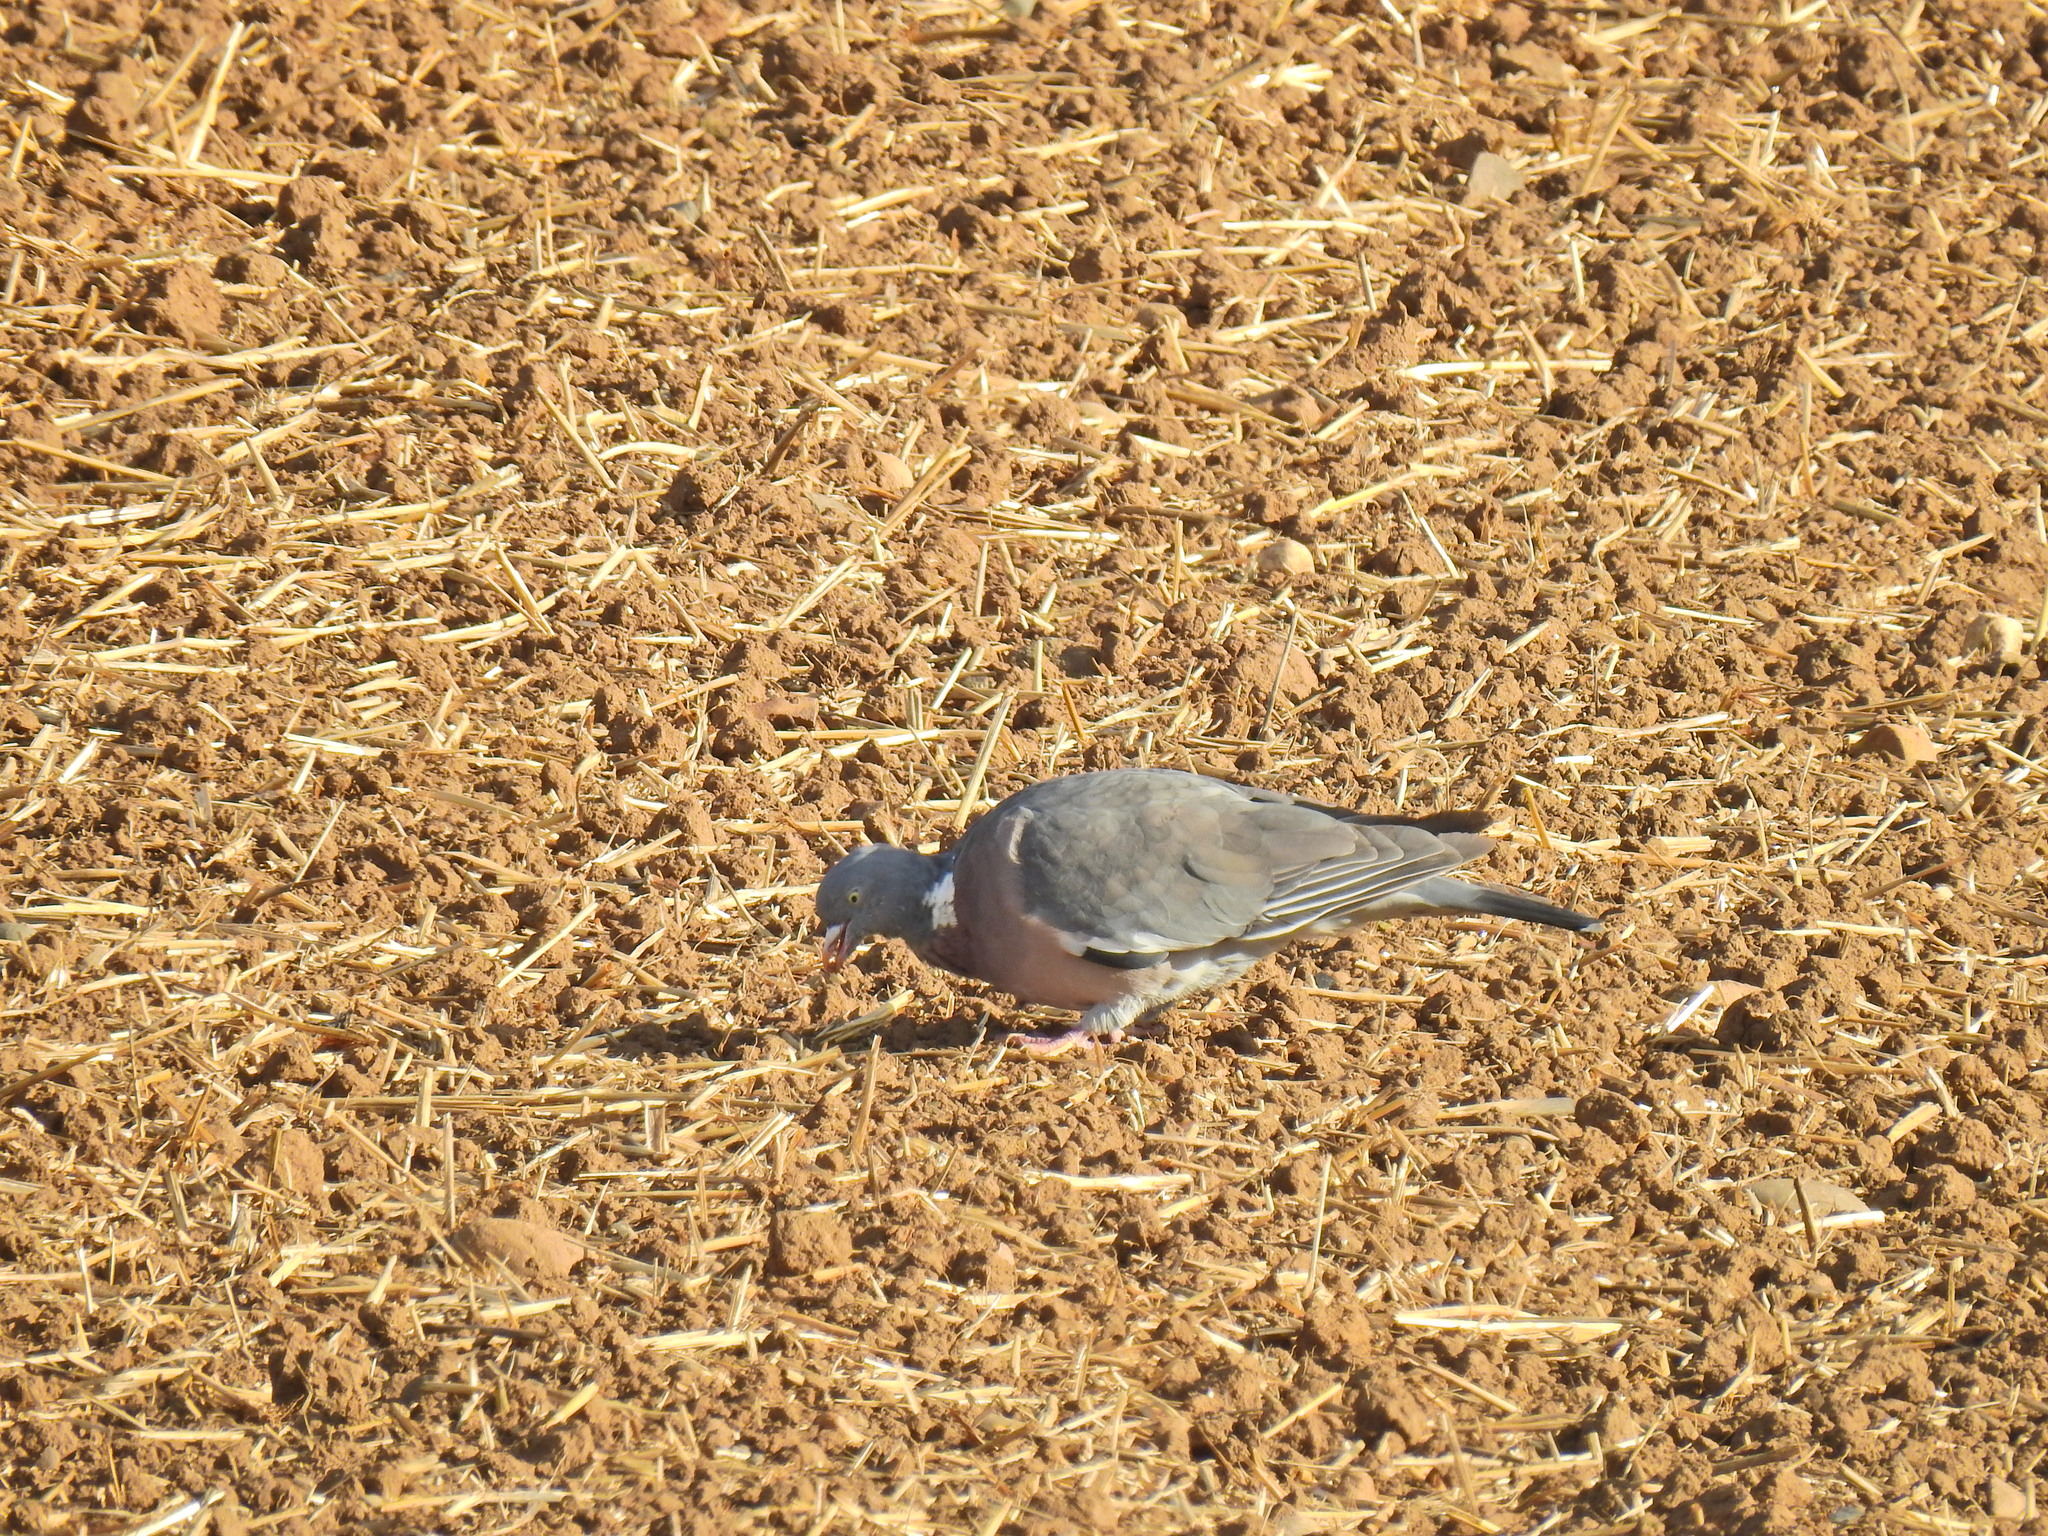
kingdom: Animalia
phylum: Chordata
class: Aves
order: Columbiformes
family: Columbidae
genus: Columba
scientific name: Columba palumbus
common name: Common wood pigeon
